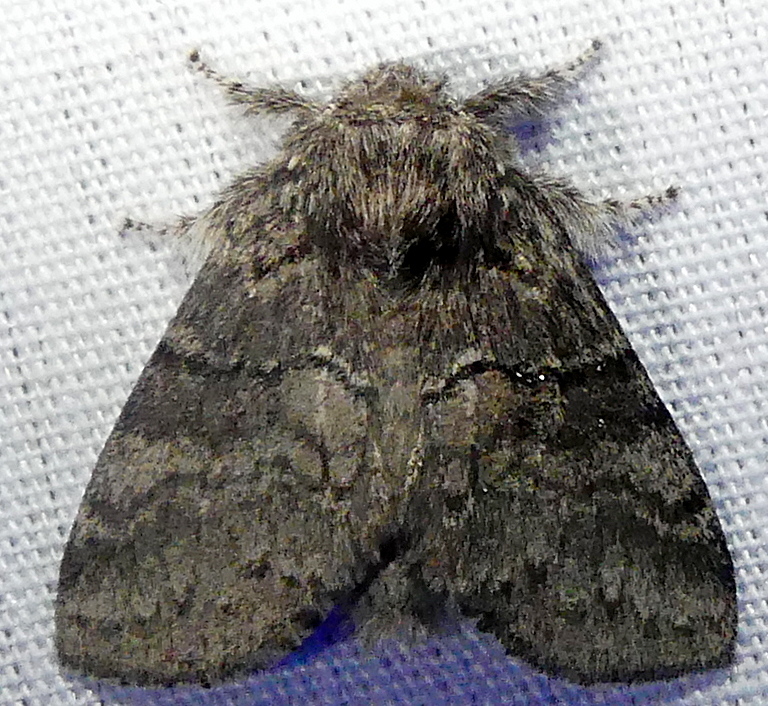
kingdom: Animalia
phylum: Arthropoda
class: Insecta
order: Lepidoptera
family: Notodontidae
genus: Gluphisia
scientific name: Gluphisia septentrionis
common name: Common gluphisia
